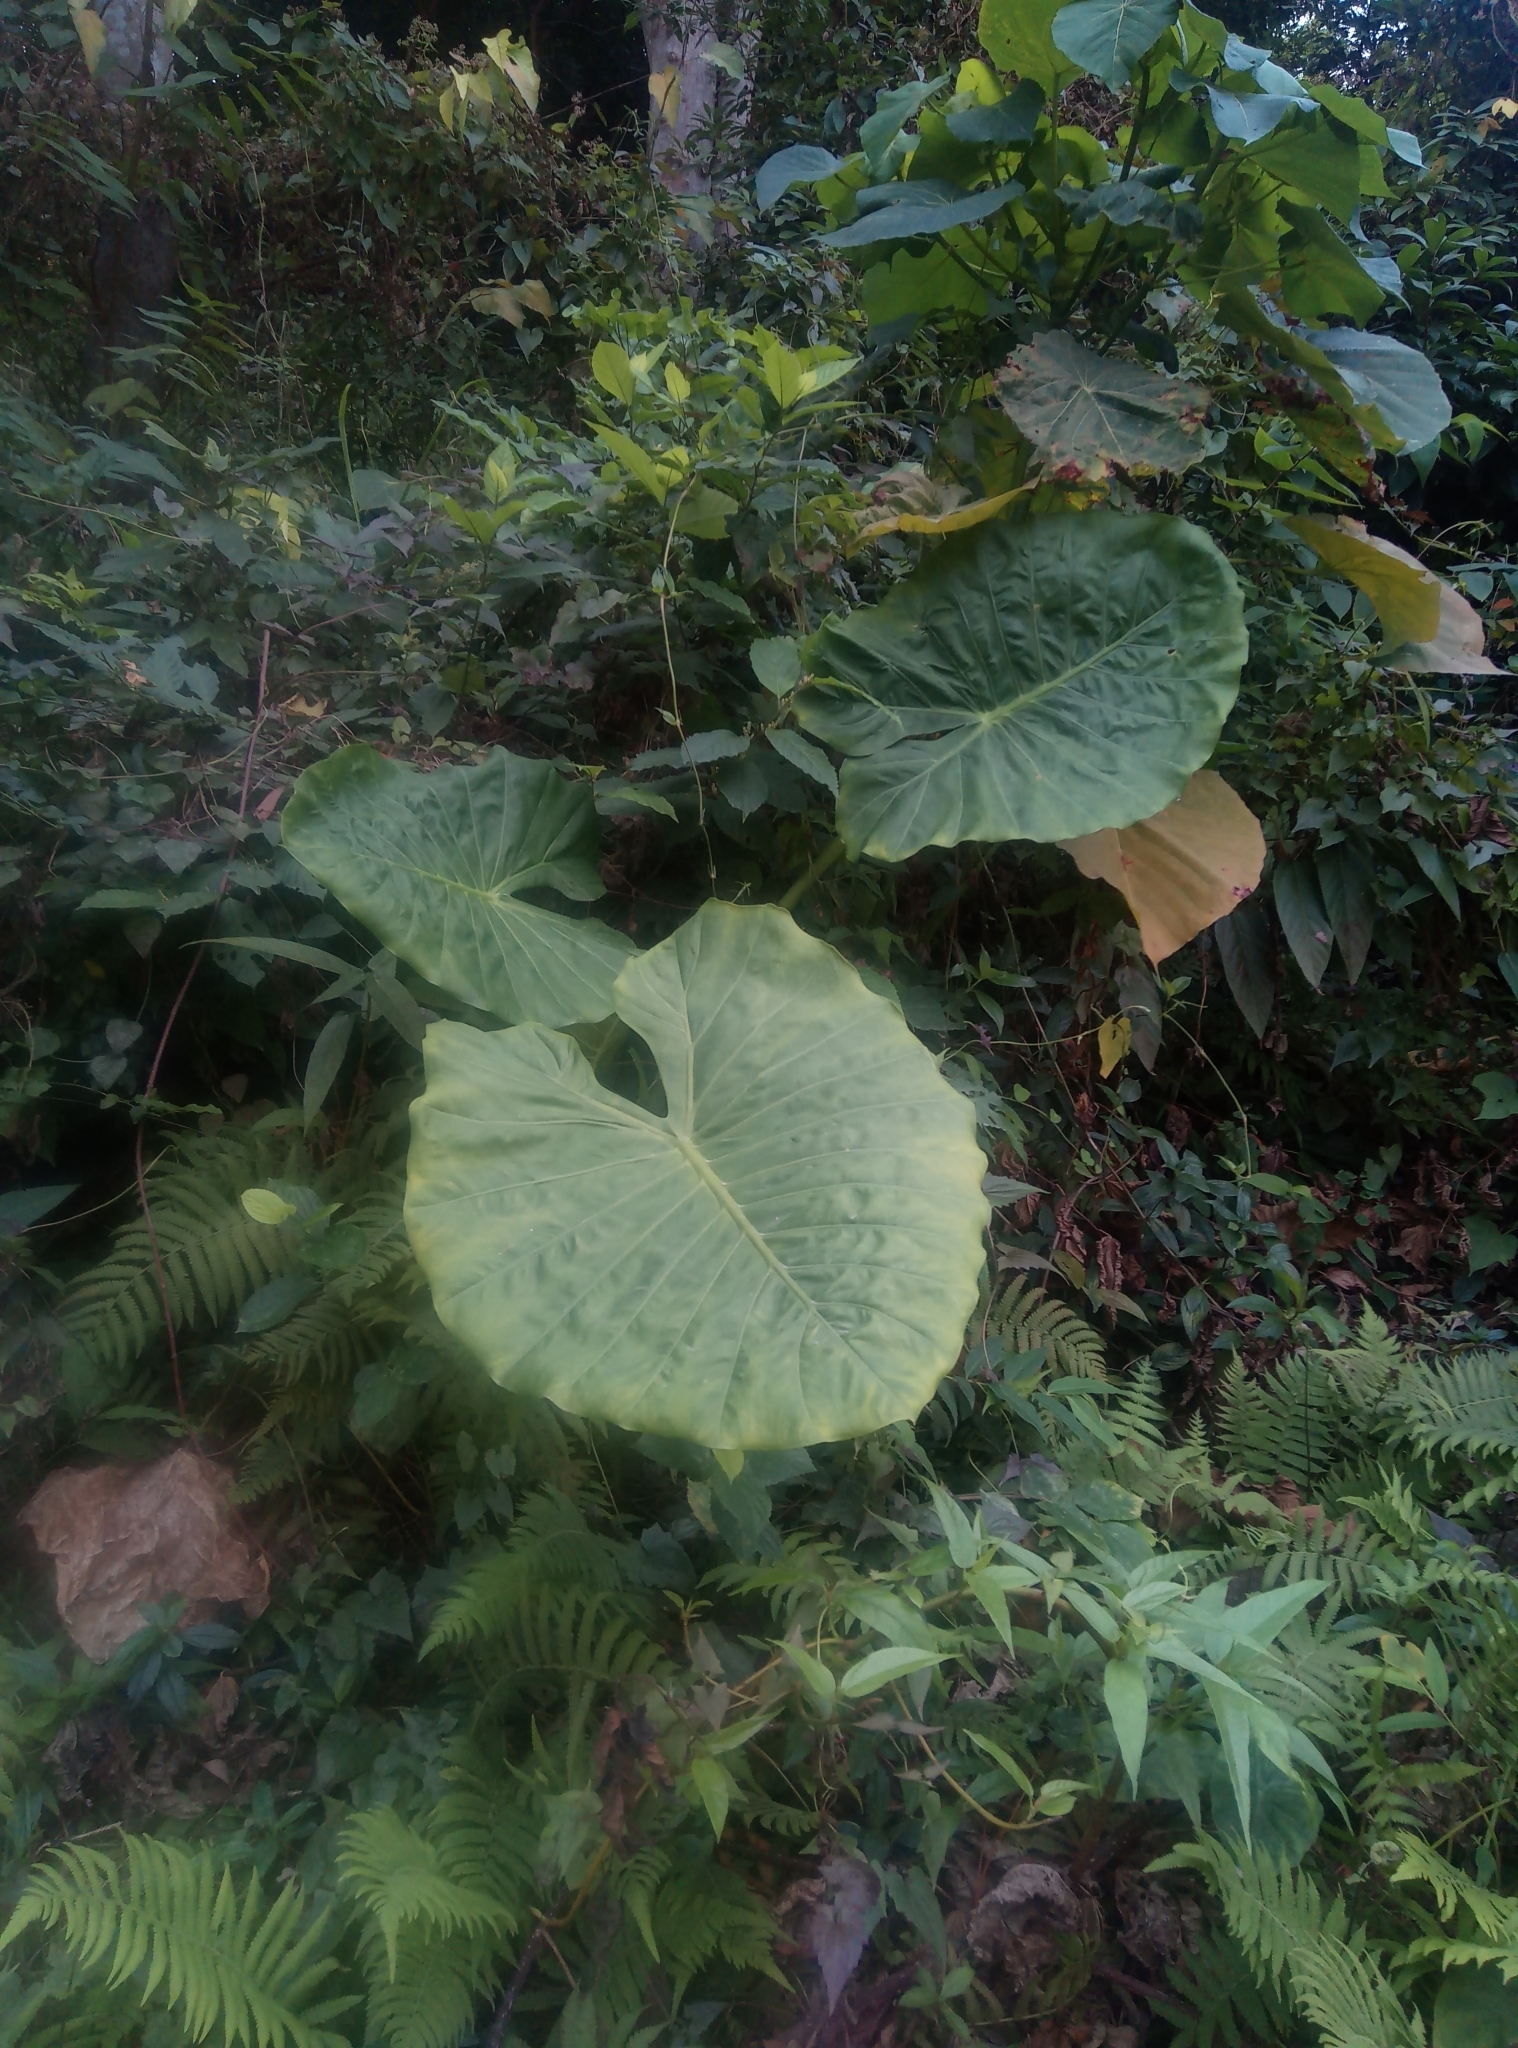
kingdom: Plantae
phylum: Tracheophyta
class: Liliopsida
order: Alismatales
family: Araceae
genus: Alocasia
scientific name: Alocasia odora
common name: Asian taro
